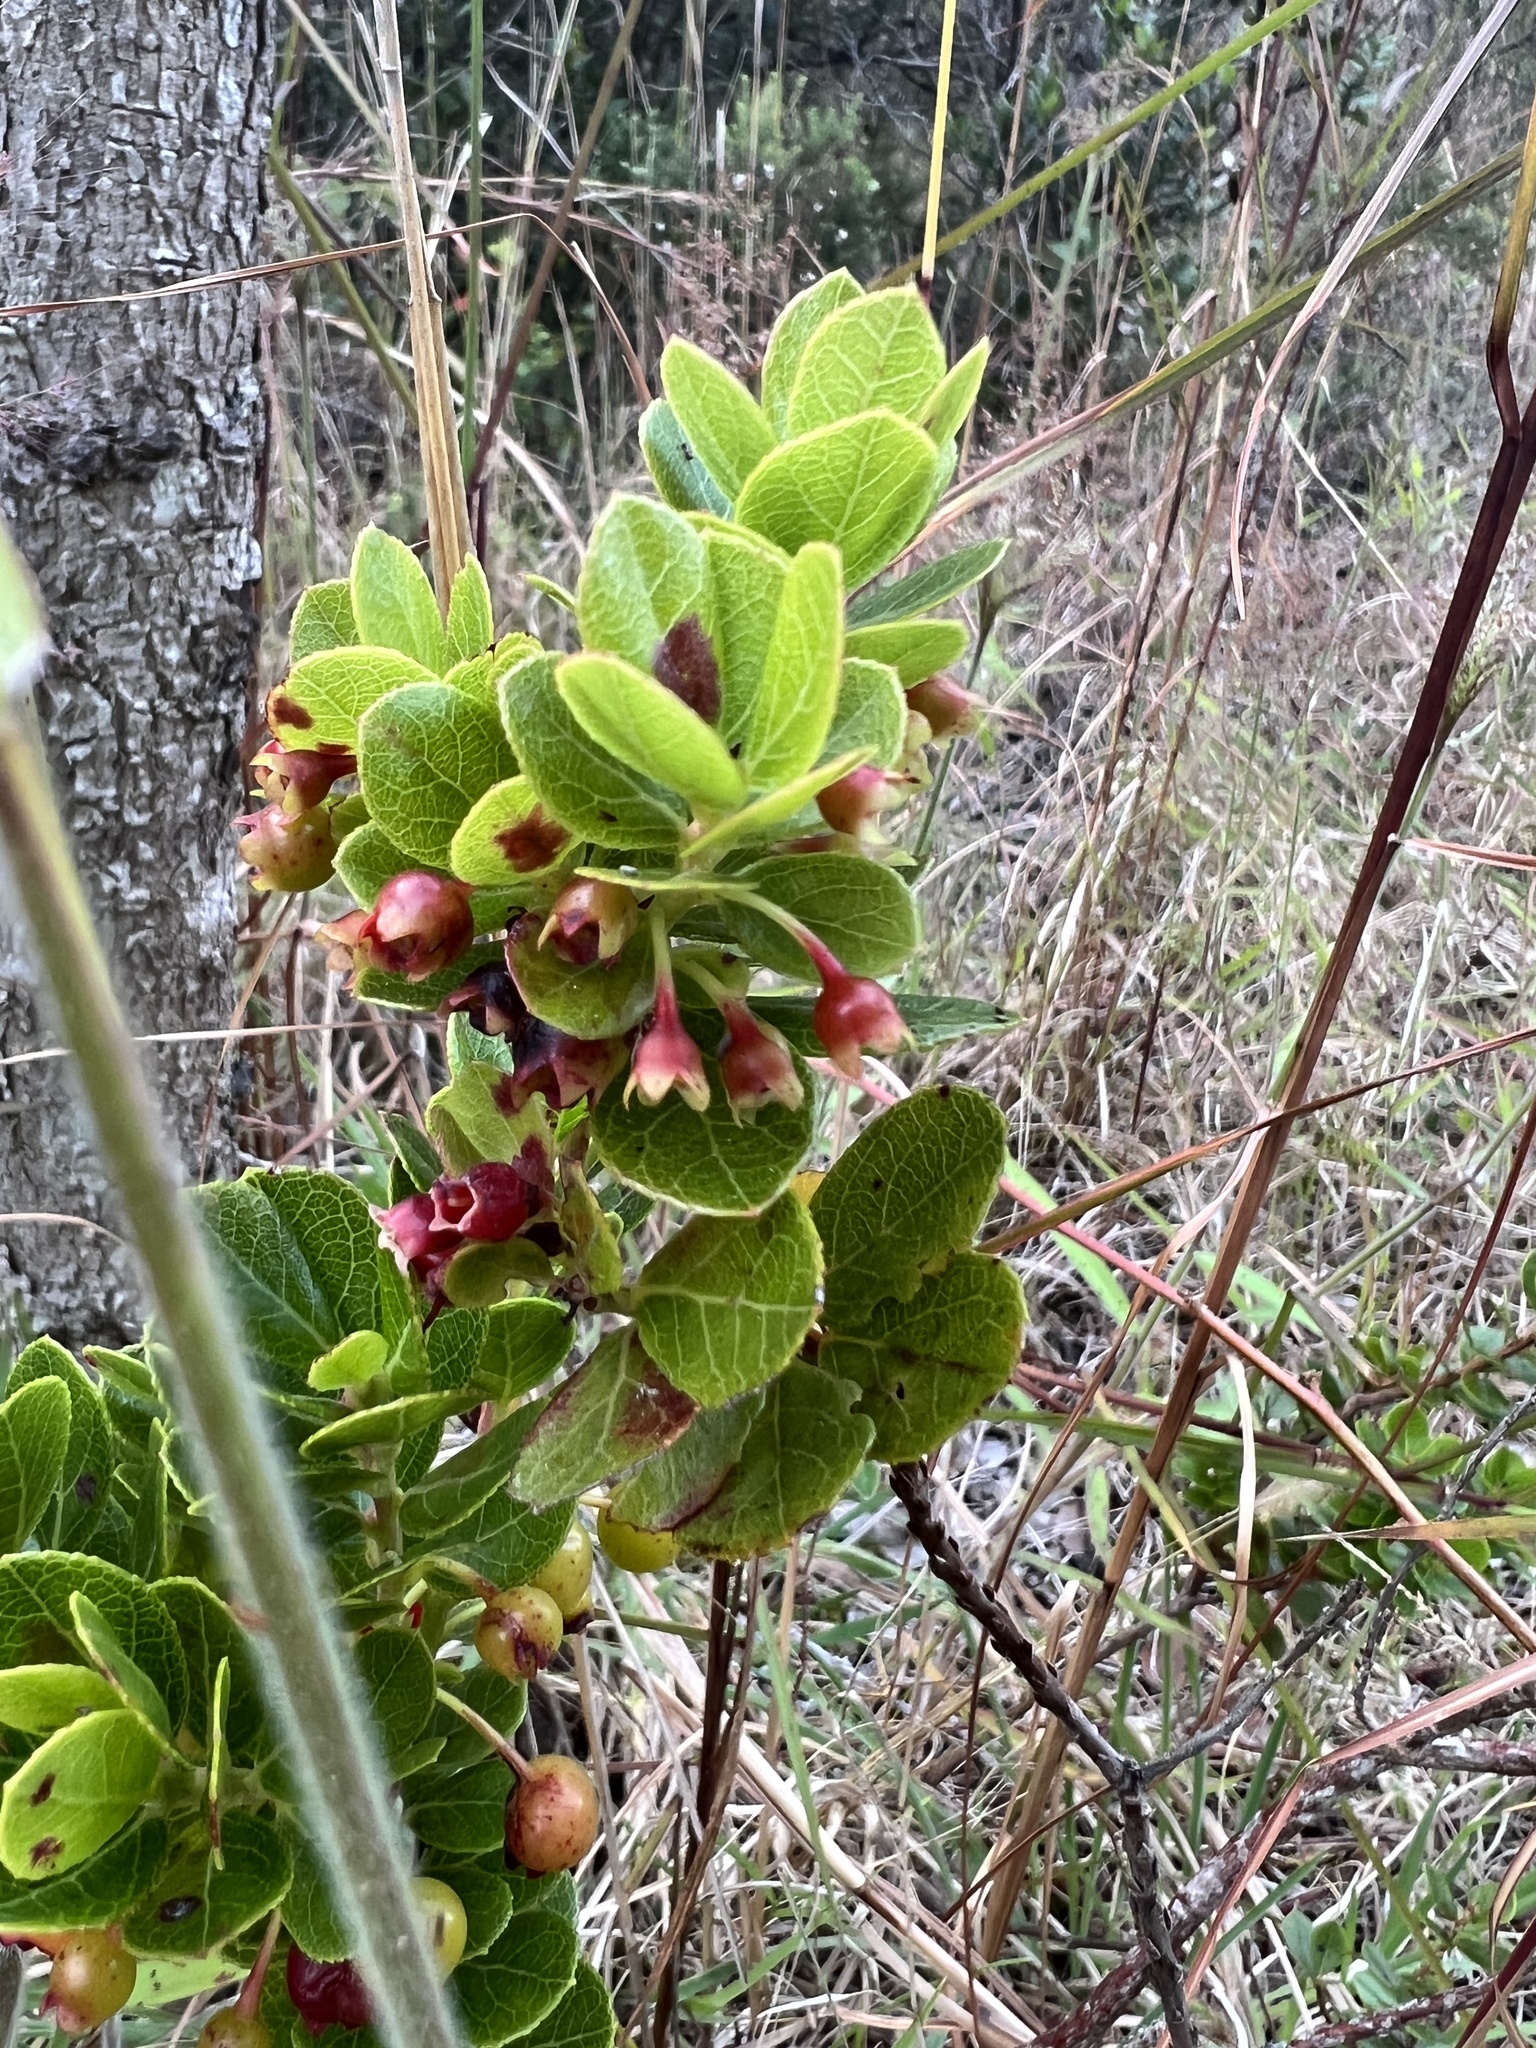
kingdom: Plantae
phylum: Tracheophyta
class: Magnoliopsida
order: Ericales
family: Ericaceae
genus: Vaccinium
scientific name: Vaccinium reticulatum
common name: Ohelo
